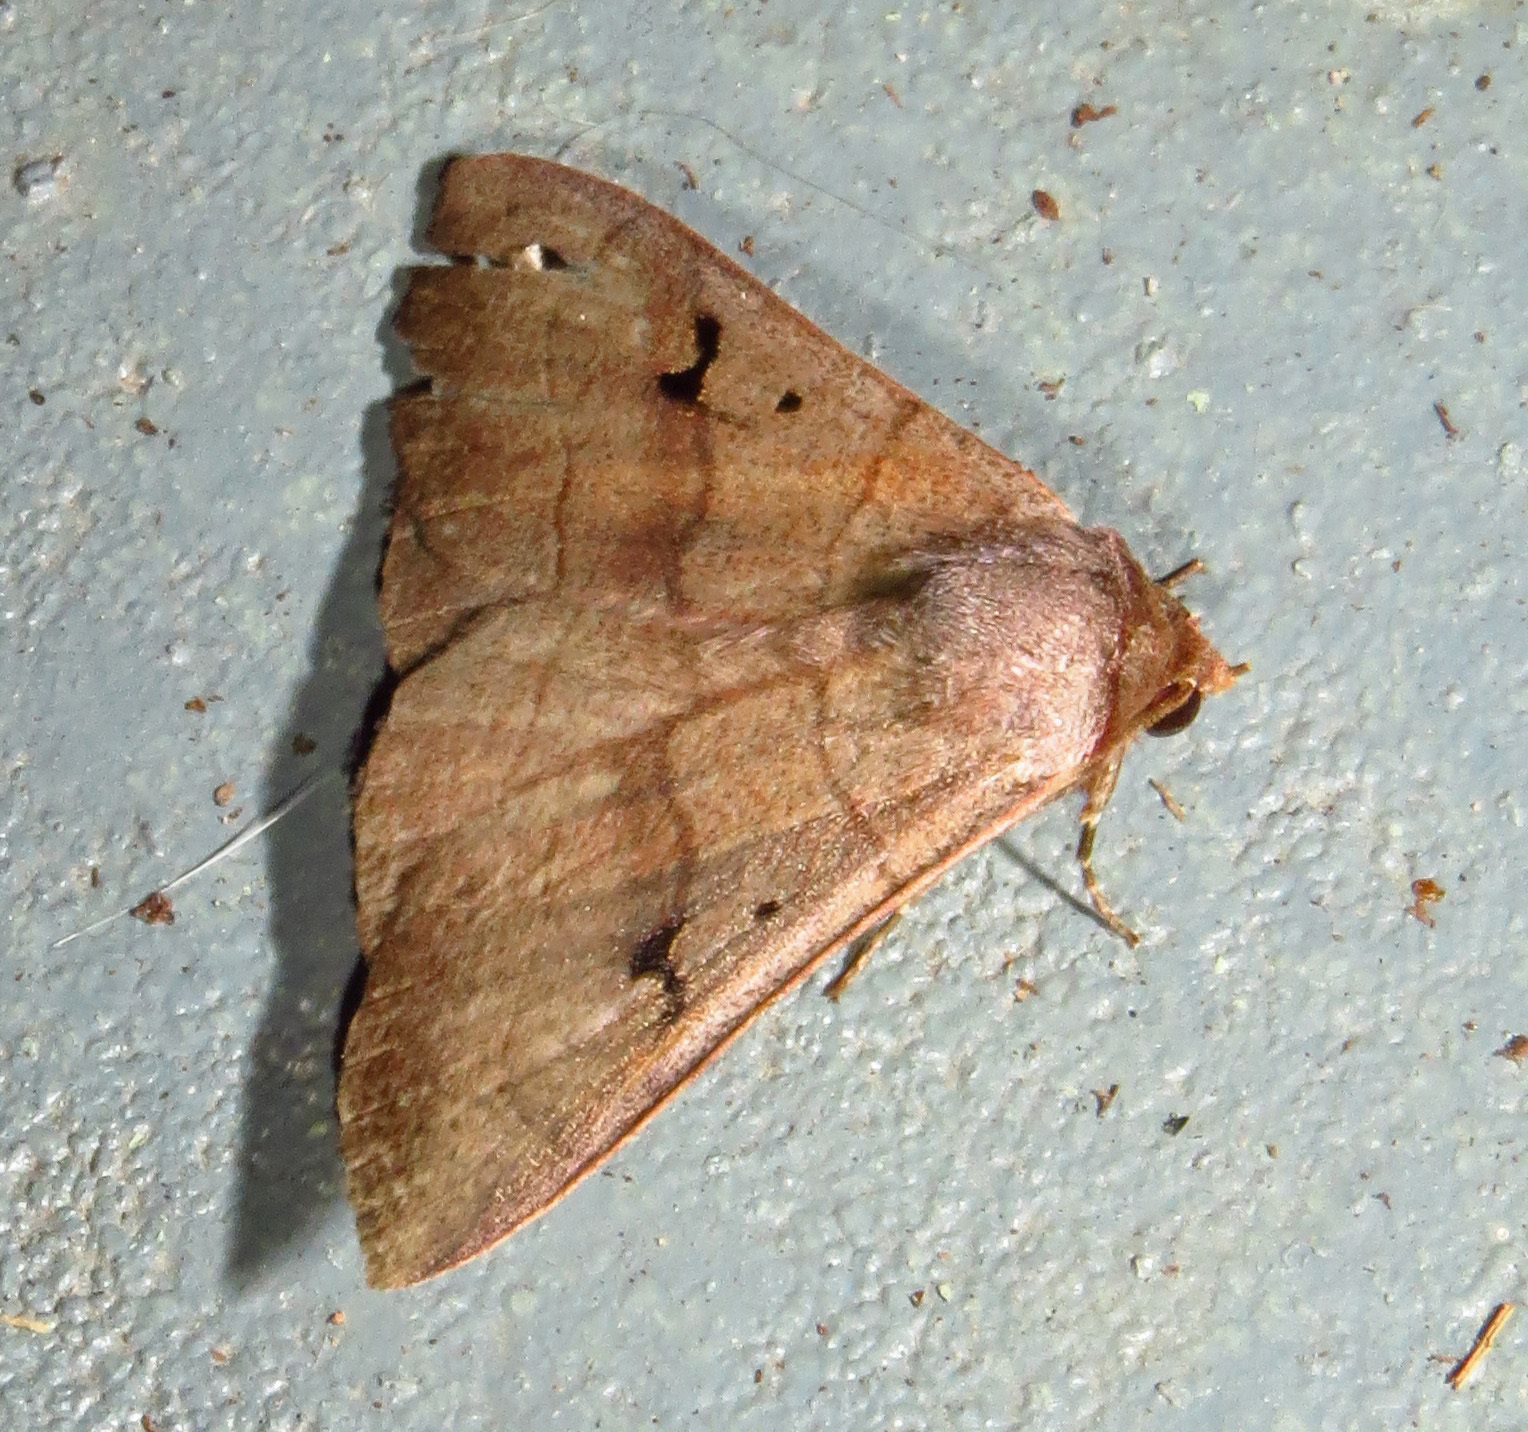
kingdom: Animalia
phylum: Arthropoda
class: Insecta
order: Lepidoptera
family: Erebidae
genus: Panopoda
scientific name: Panopoda carneicosta
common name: Brown panopoda moth
